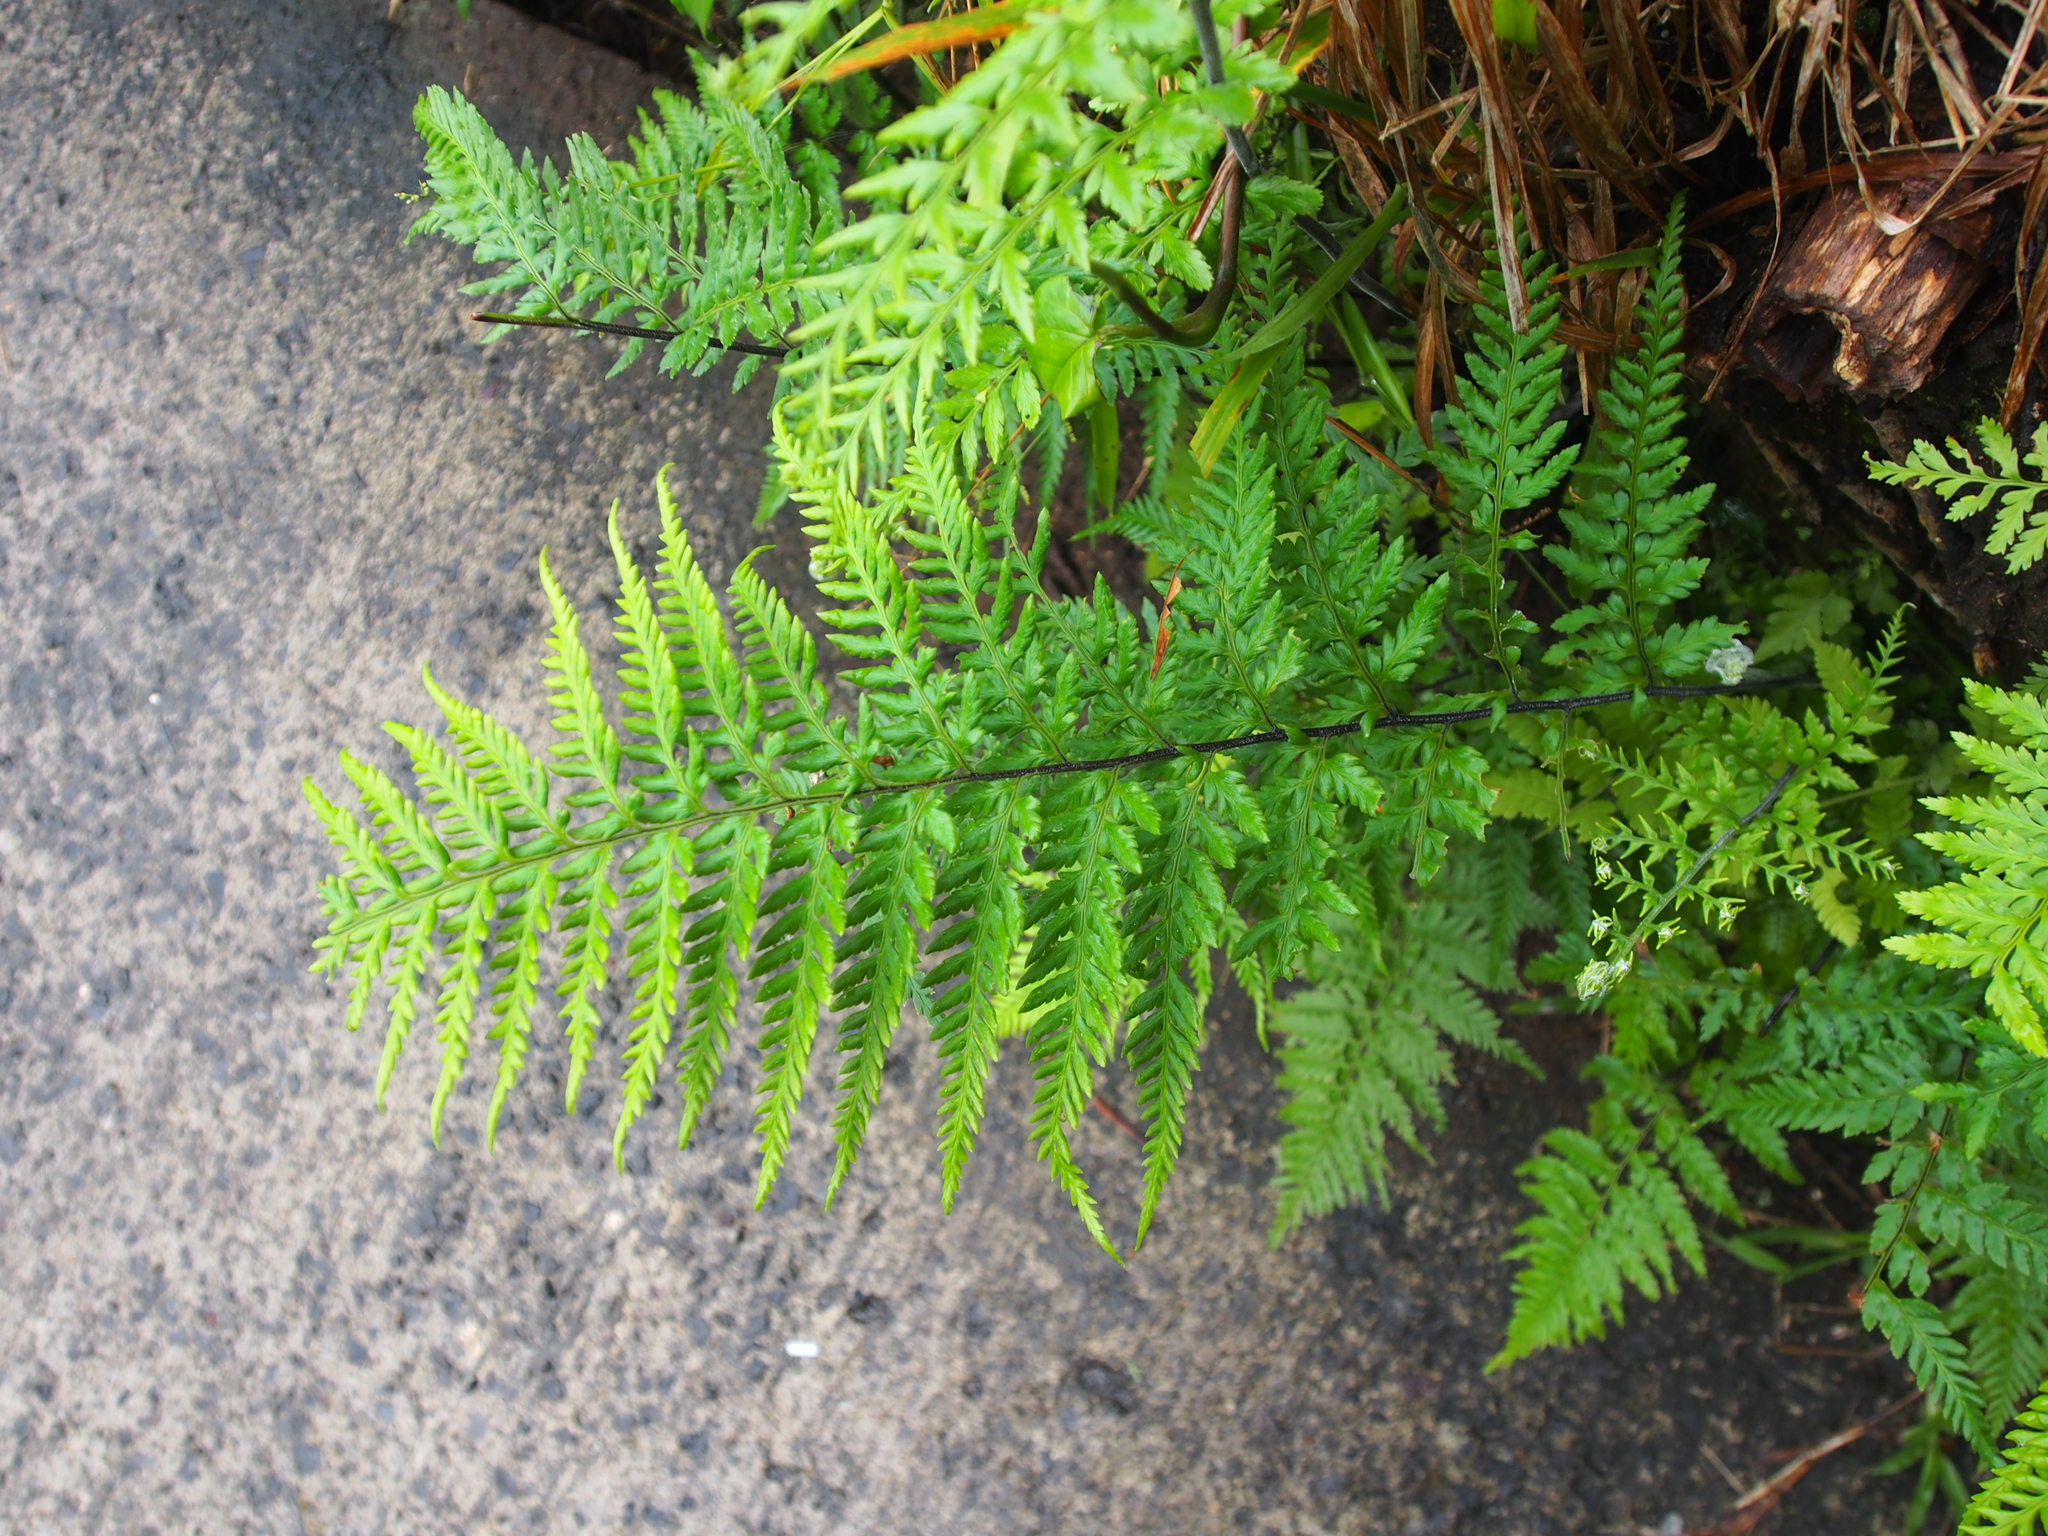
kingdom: Plantae
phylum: Tracheophyta
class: Polypodiopsida
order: Polypodiales
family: Pteridaceae
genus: Pityrogramma
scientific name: Pityrogramma calomelanos
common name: Dixie silverback fern
